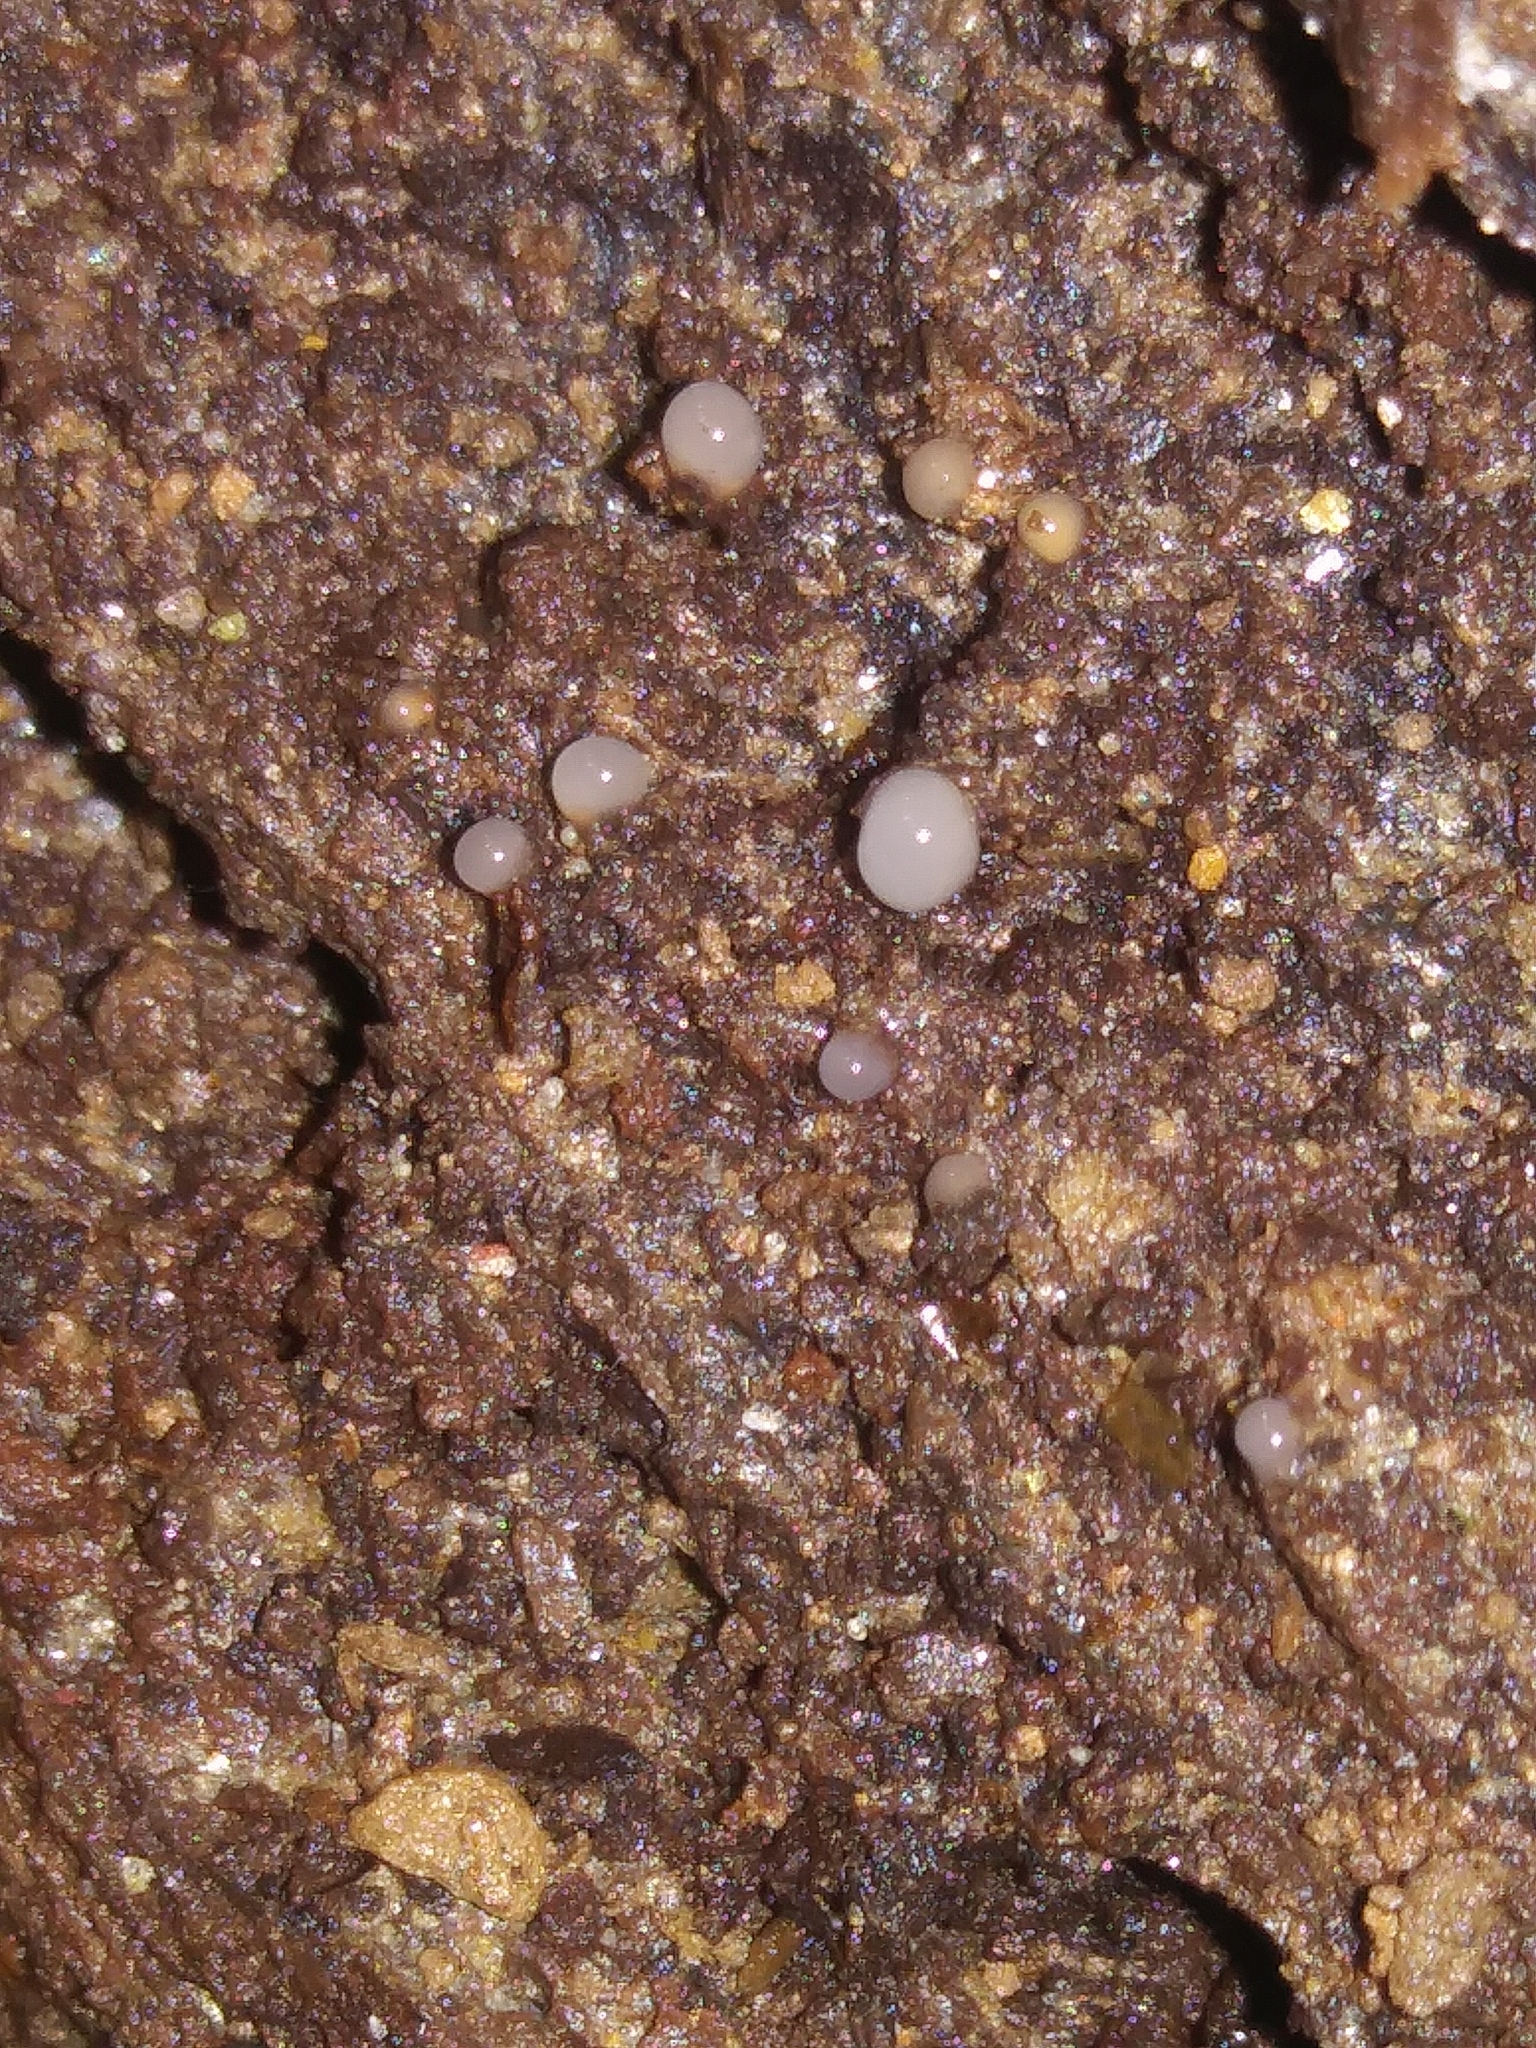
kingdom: Fungi
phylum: Basidiomycota
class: Atractiellomycetes
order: Atractiellales
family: Phleogenaceae
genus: Helicogloea
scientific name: Helicogloea compressa
